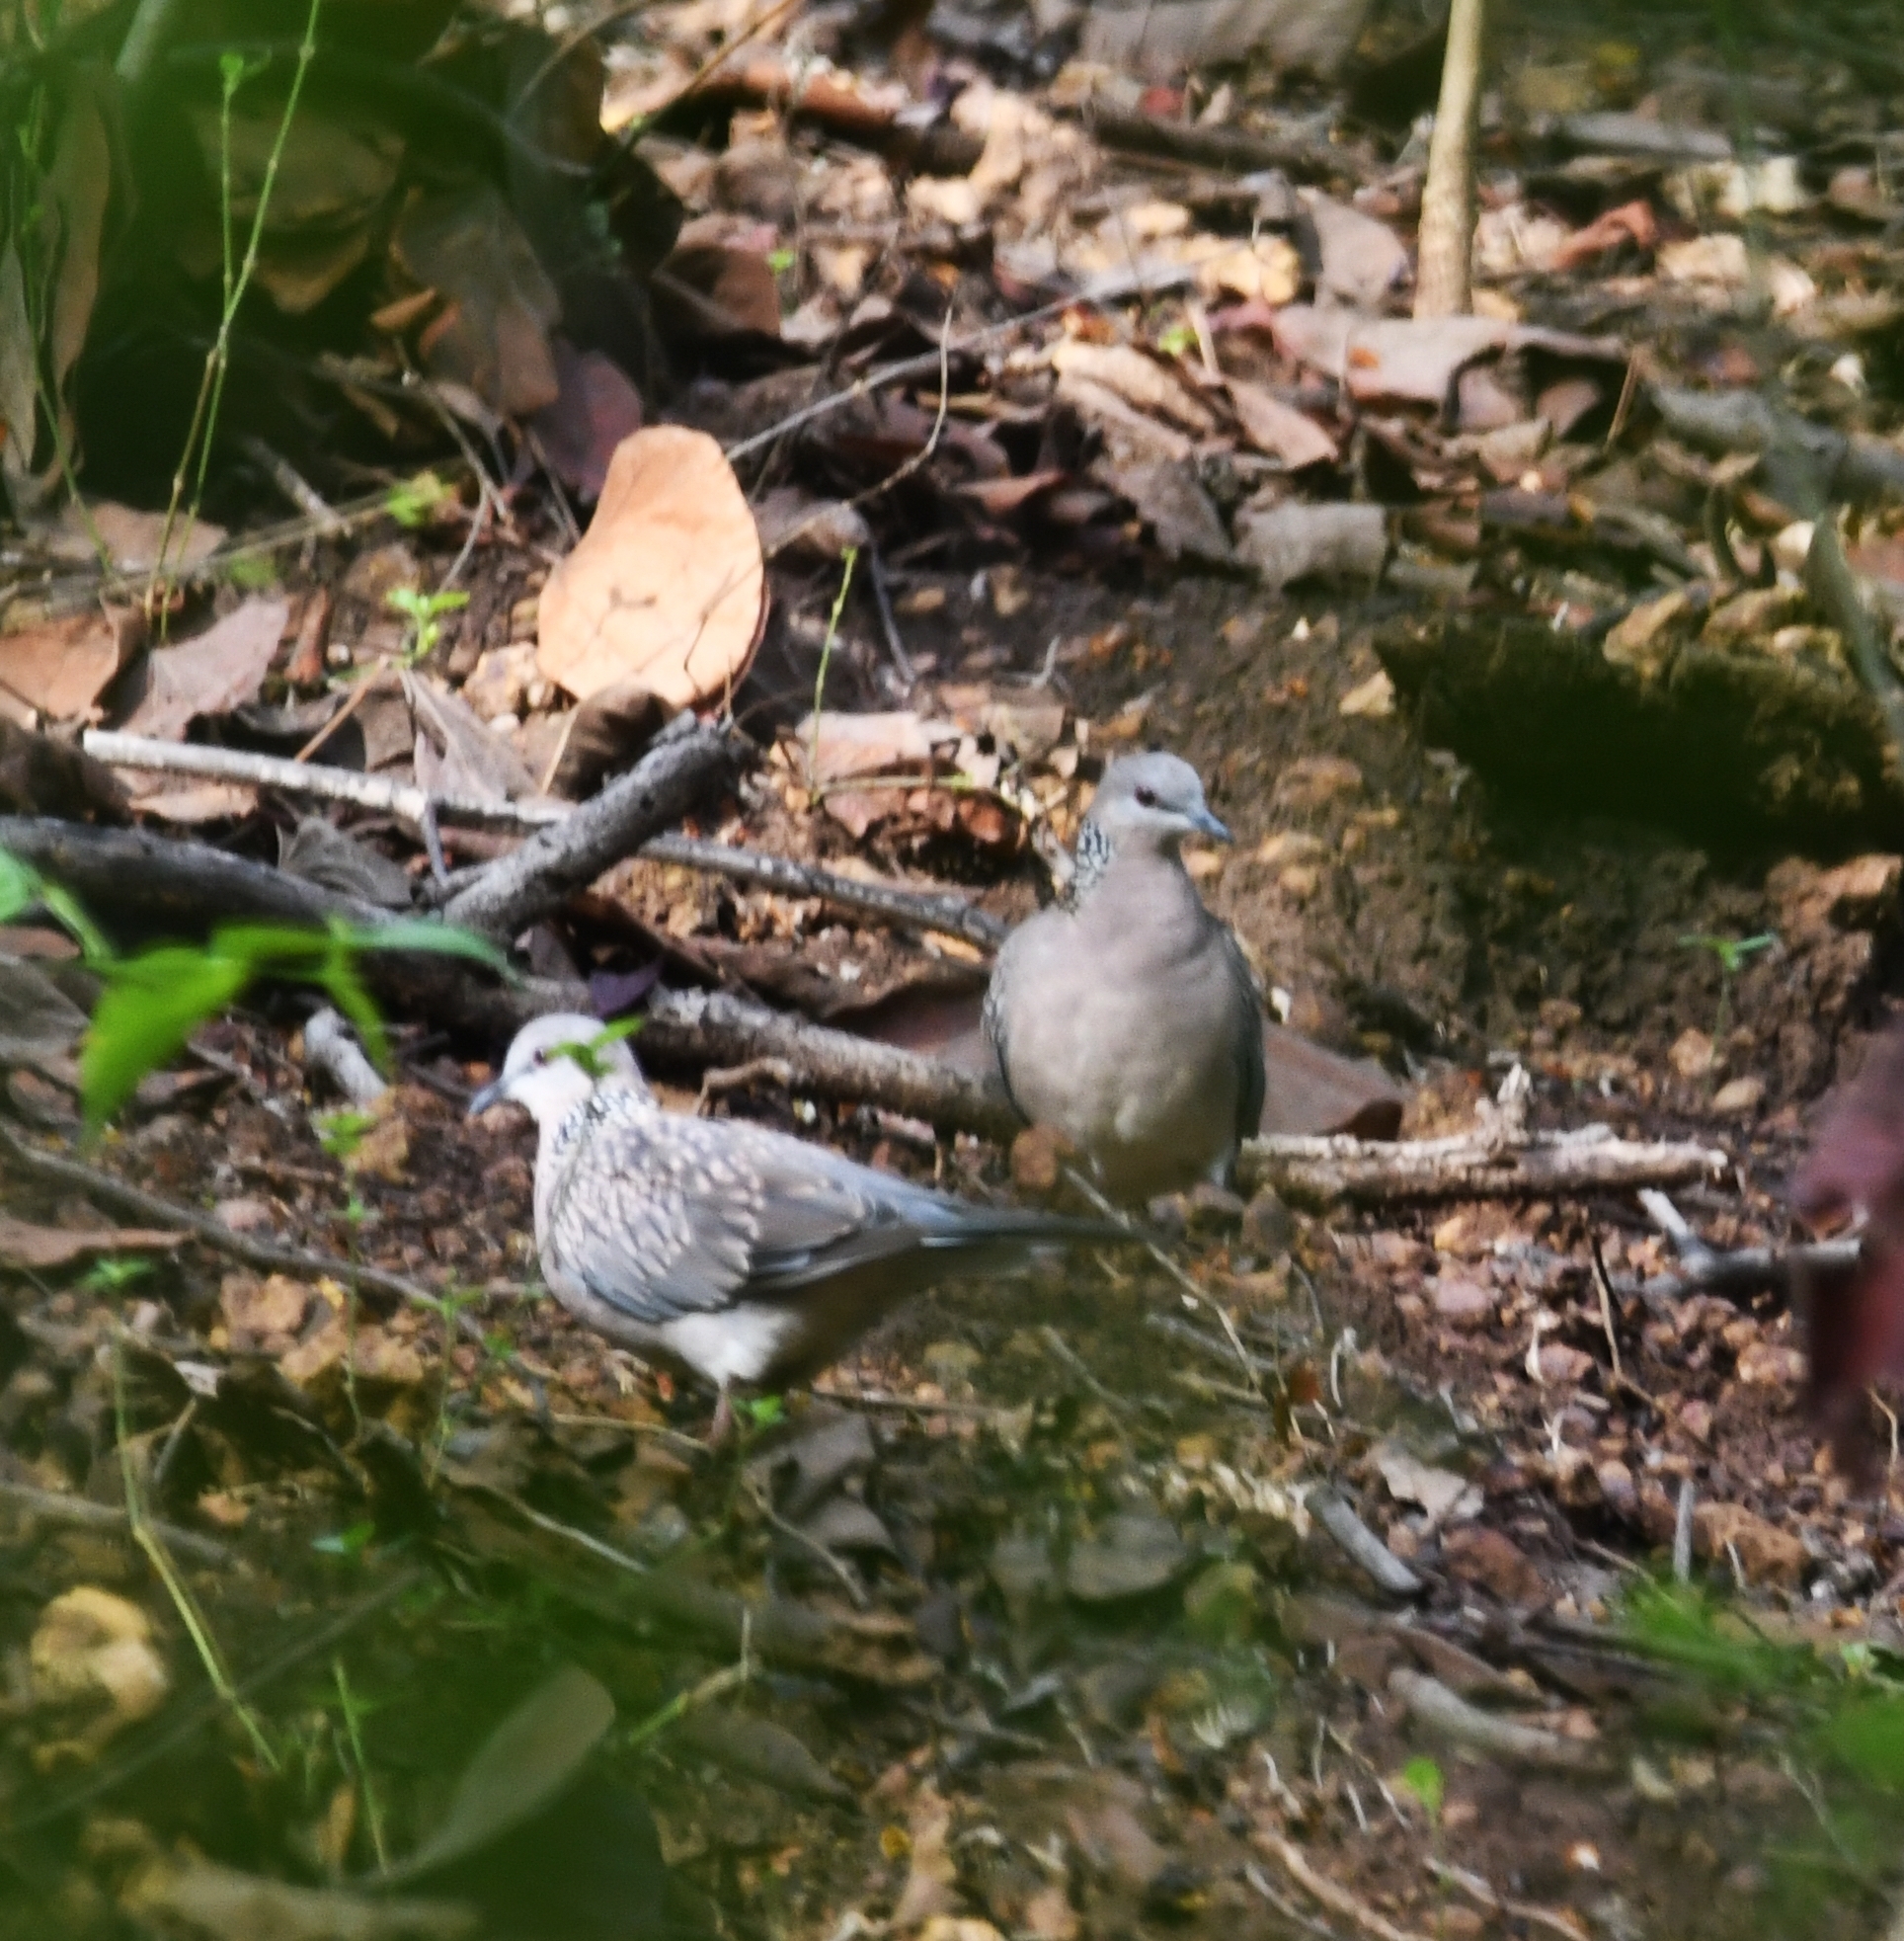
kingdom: Animalia
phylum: Chordata
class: Aves
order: Columbiformes
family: Columbidae
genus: Spilopelia
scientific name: Spilopelia chinensis
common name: Spotted dove
